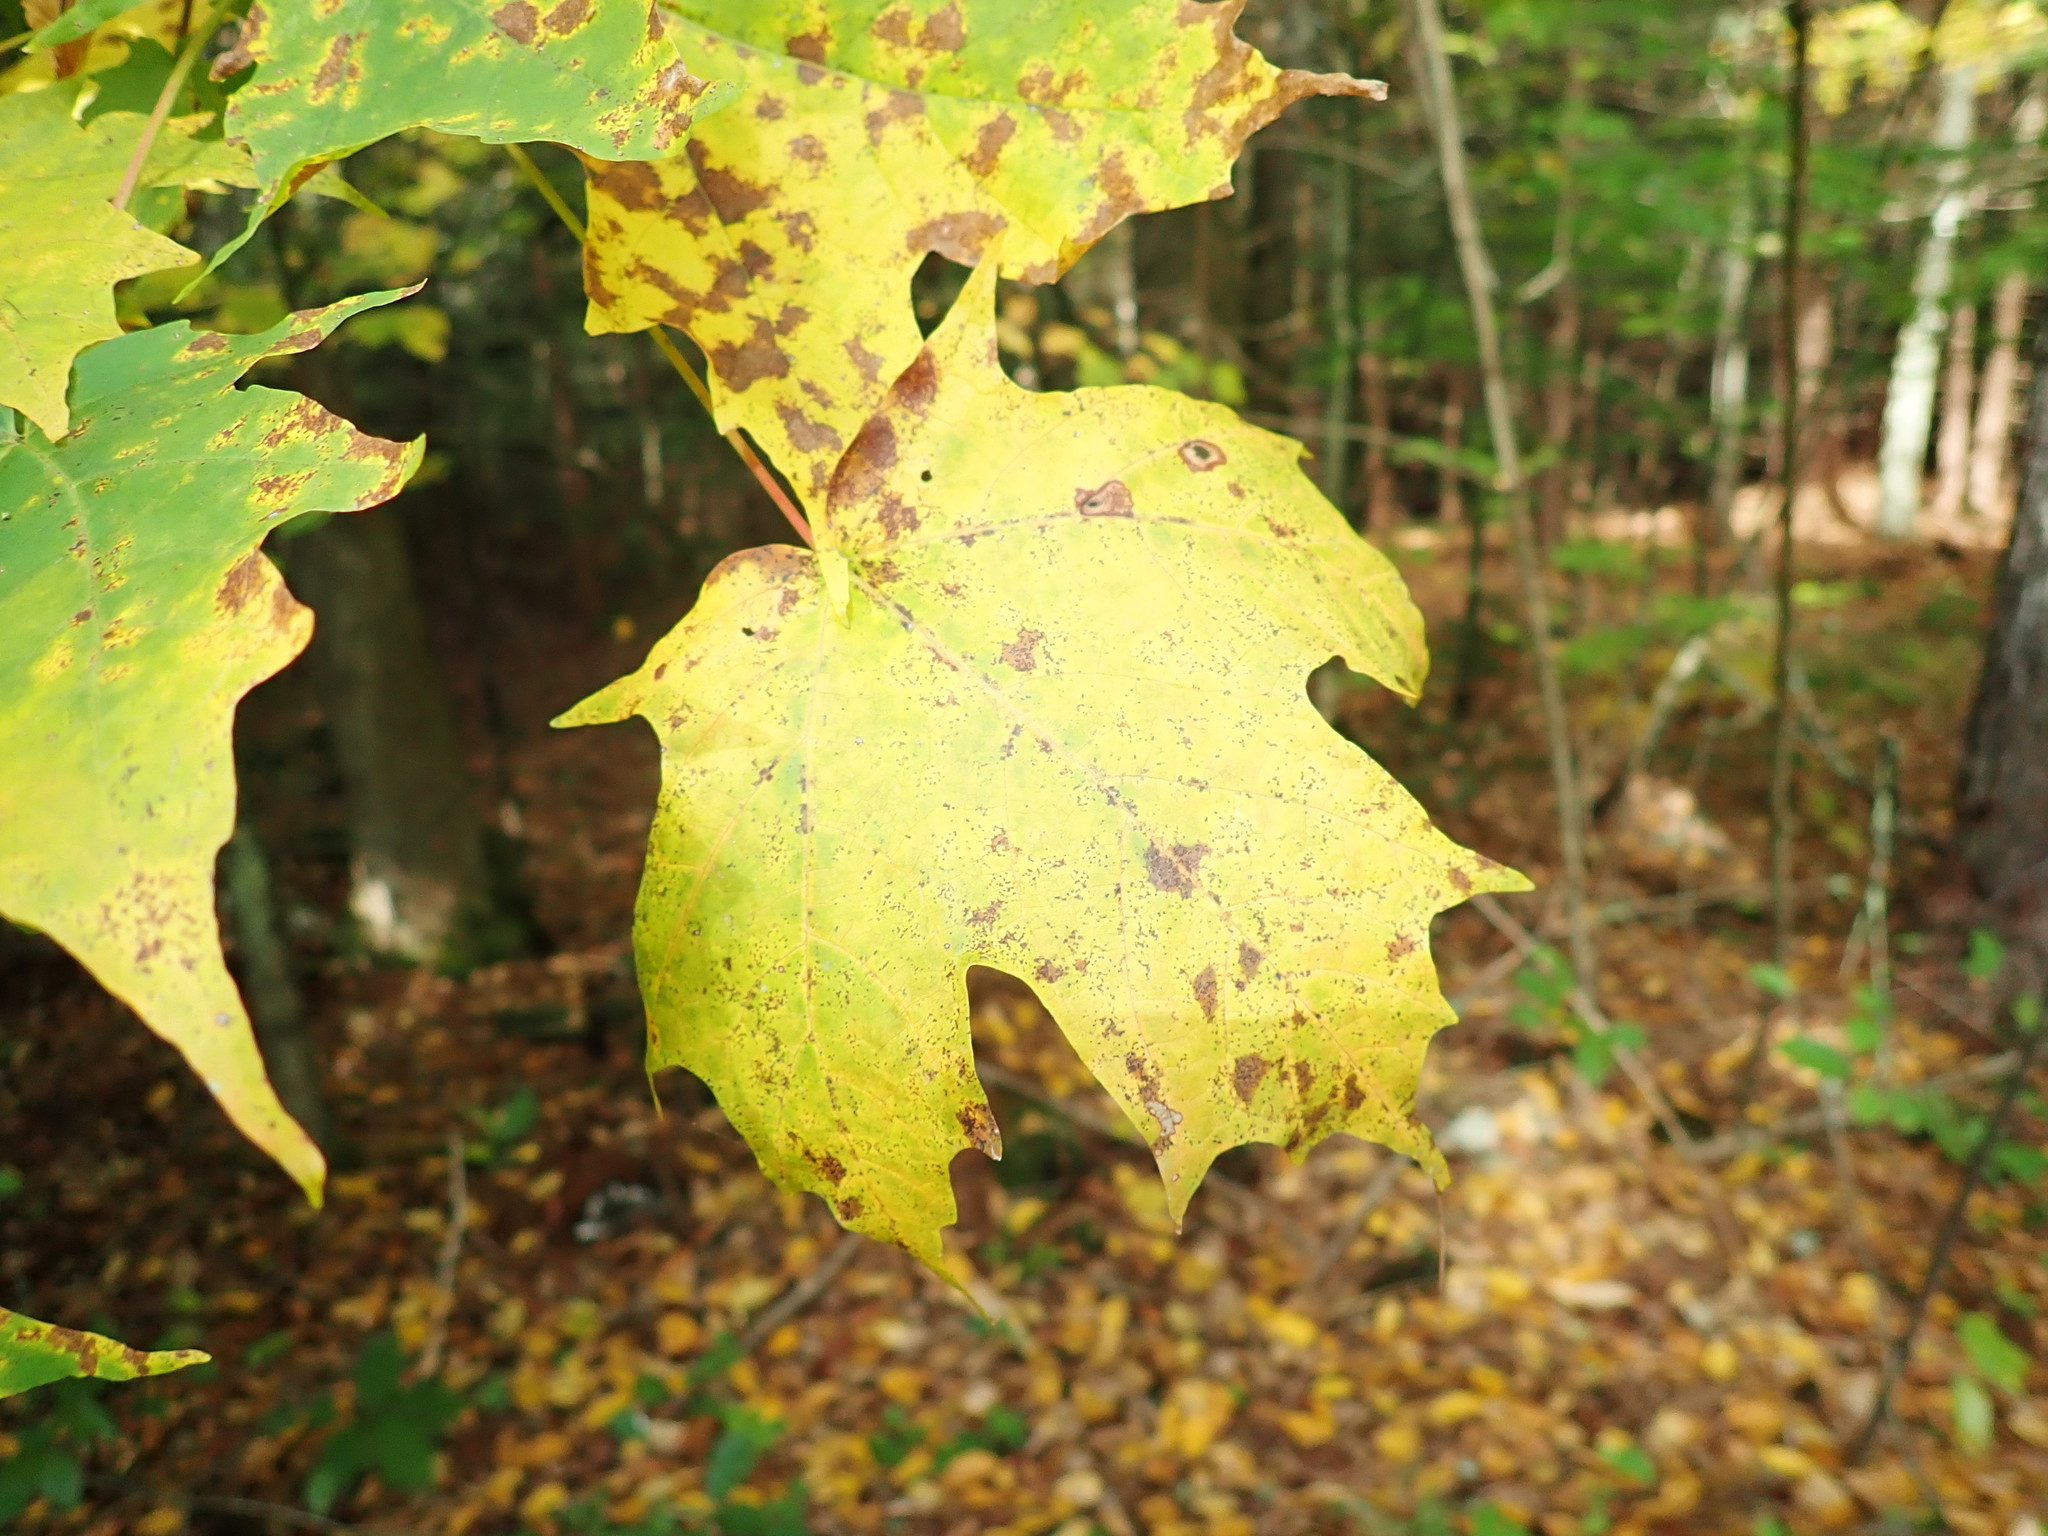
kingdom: Plantae
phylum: Tracheophyta
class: Magnoliopsida
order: Sapindales
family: Sapindaceae
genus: Acer
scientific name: Acer saccharum
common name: Sugar maple
